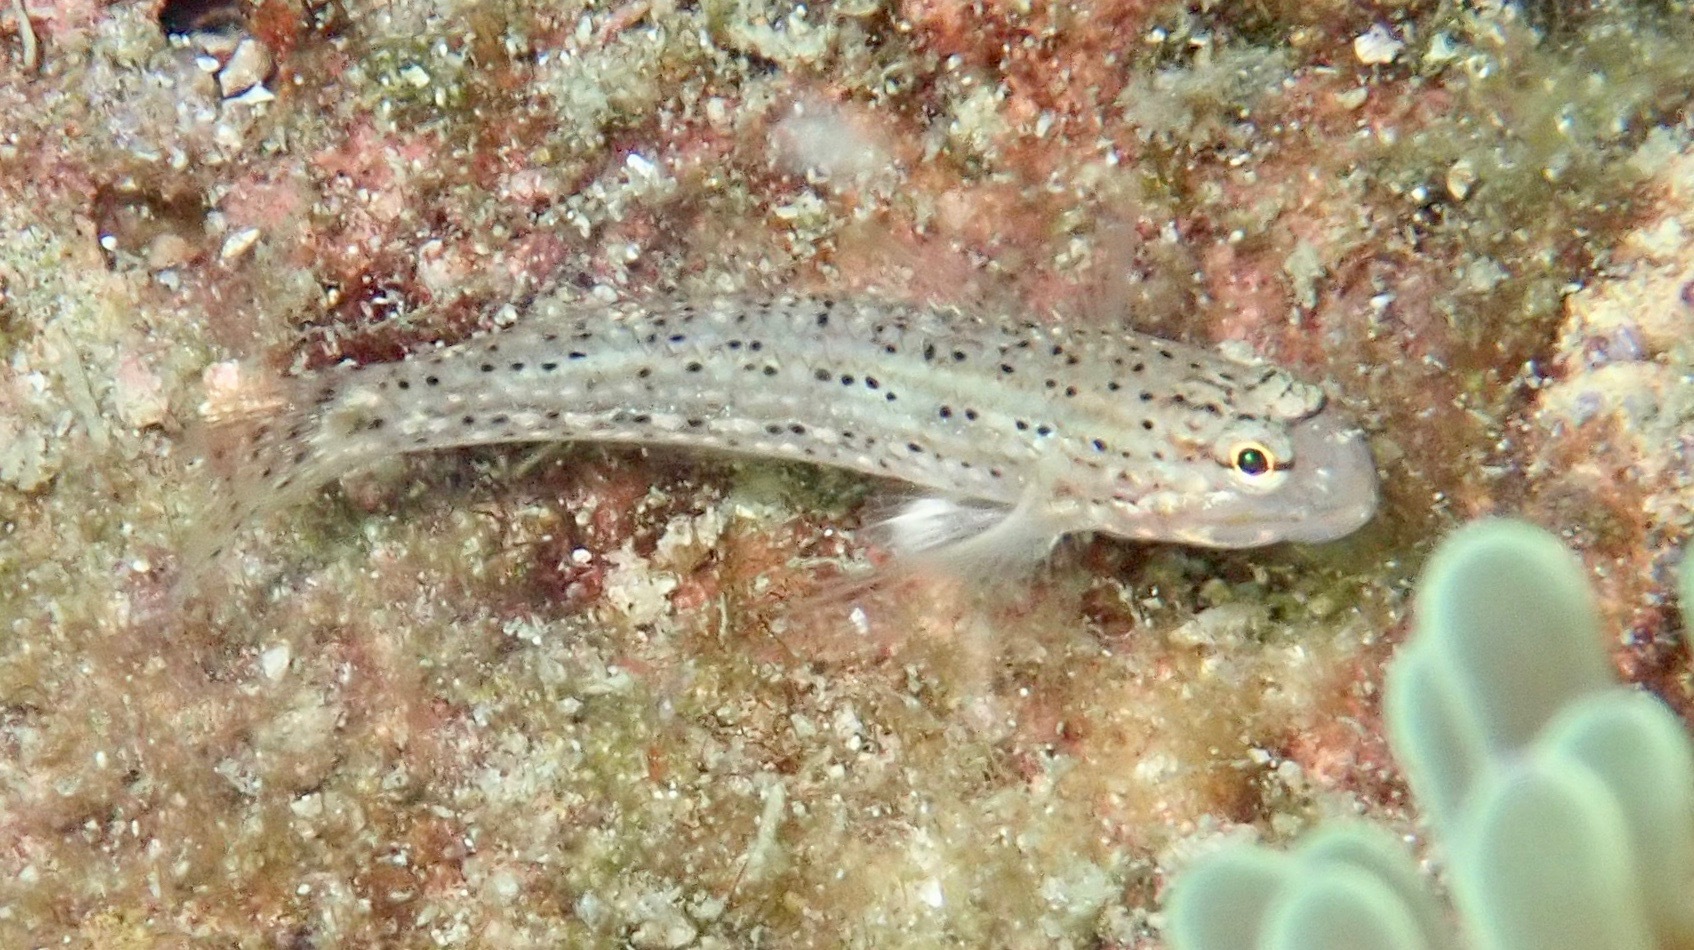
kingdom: Animalia
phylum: Chordata
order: Perciformes
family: Gobiidae
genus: Istigobius
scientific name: Istigobius goldmanni
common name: Goldman's goby
